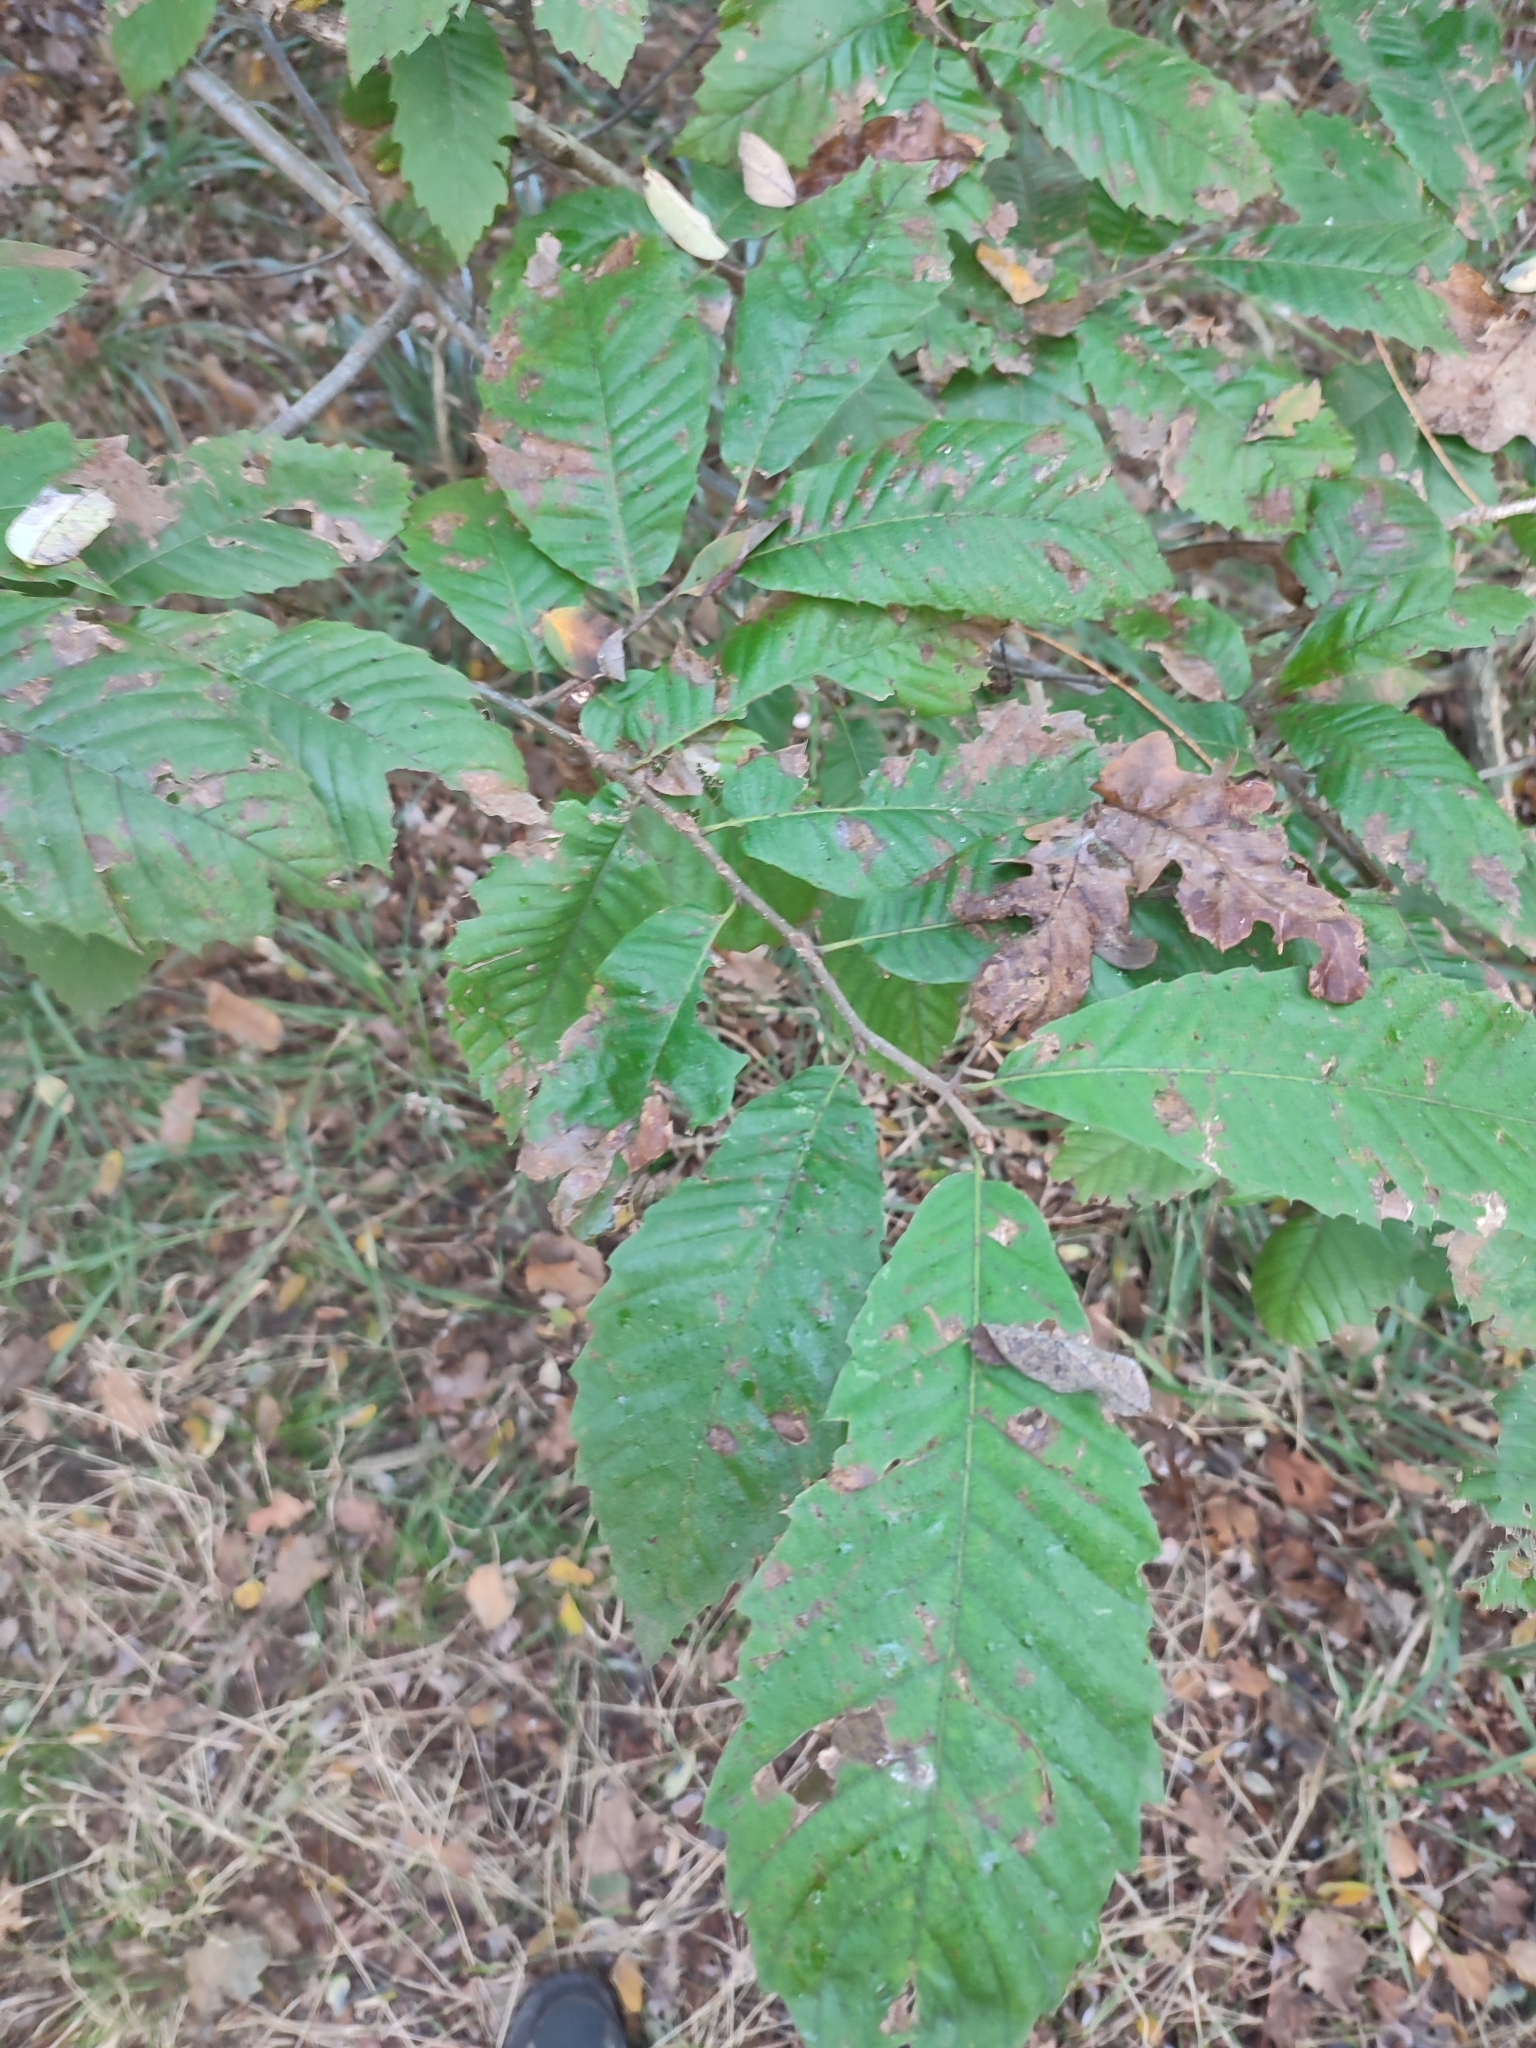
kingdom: Plantae
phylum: Tracheophyta
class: Magnoliopsida
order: Fagales
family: Fagaceae
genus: Castanea
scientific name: Castanea sativa
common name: Sweet chestnut
